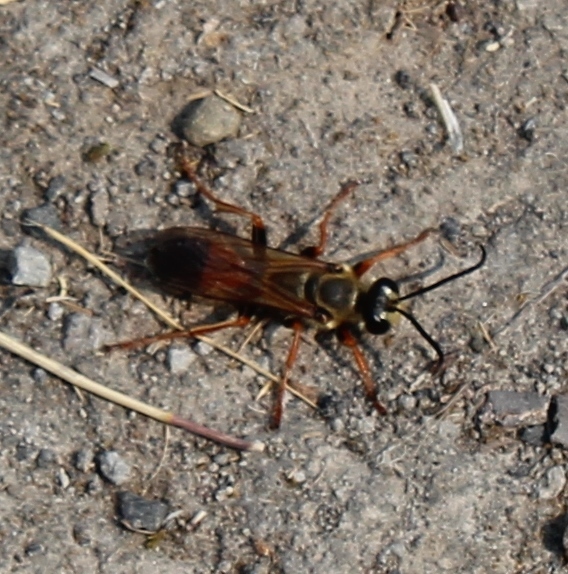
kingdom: Animalia
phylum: Arthropoda
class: Insecta
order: Hymenoptera
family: Sphecidae
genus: Sphex
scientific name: Sphex ichneumoneus
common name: Great golden digger wasp
